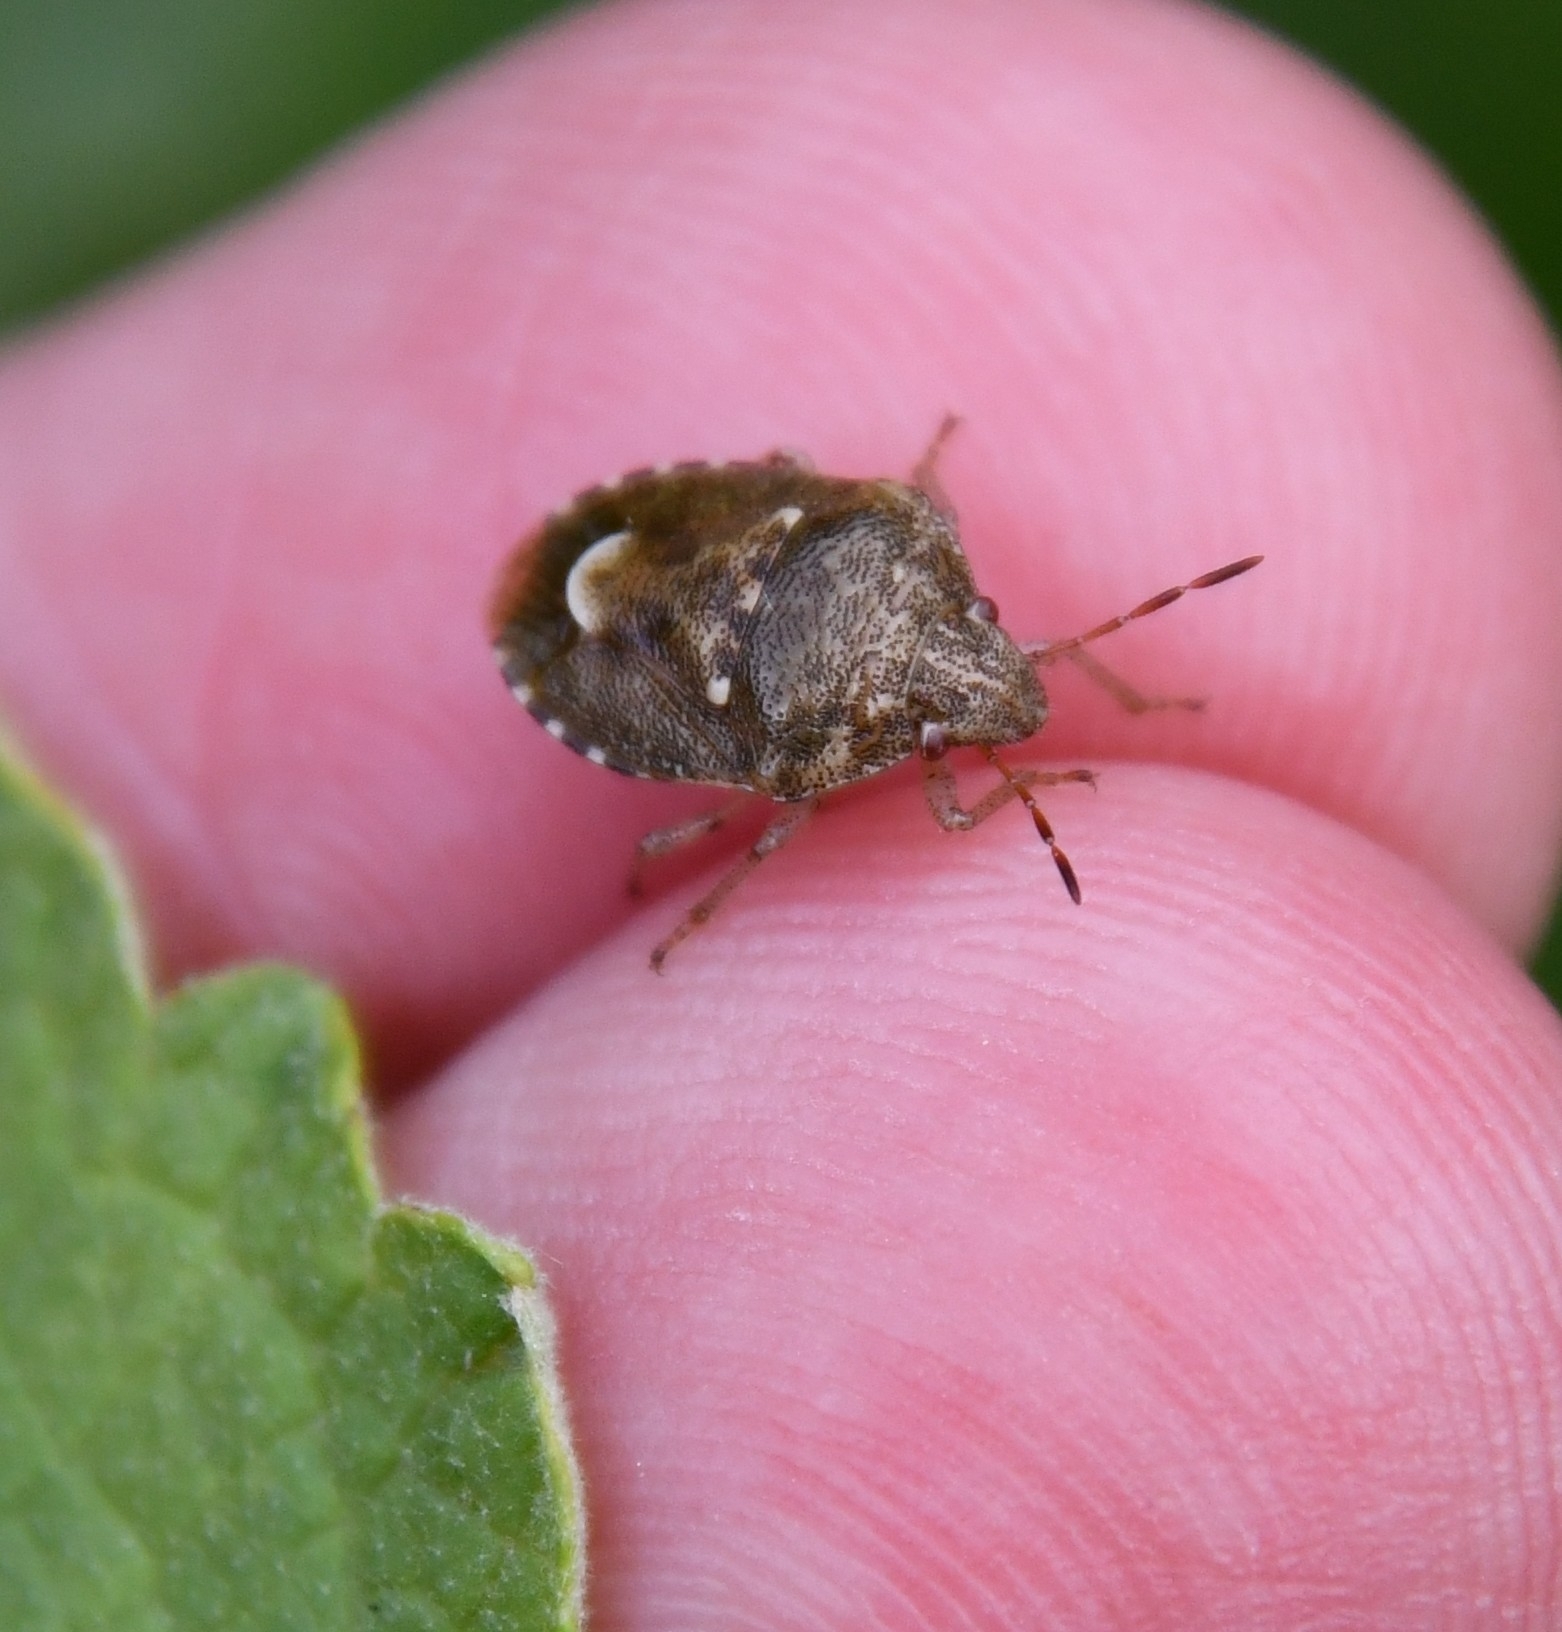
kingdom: Animalia
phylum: Arthropoda
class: Insecta
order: Hemiptera
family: Pentatomidae
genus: Staria
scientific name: Staria lunata
